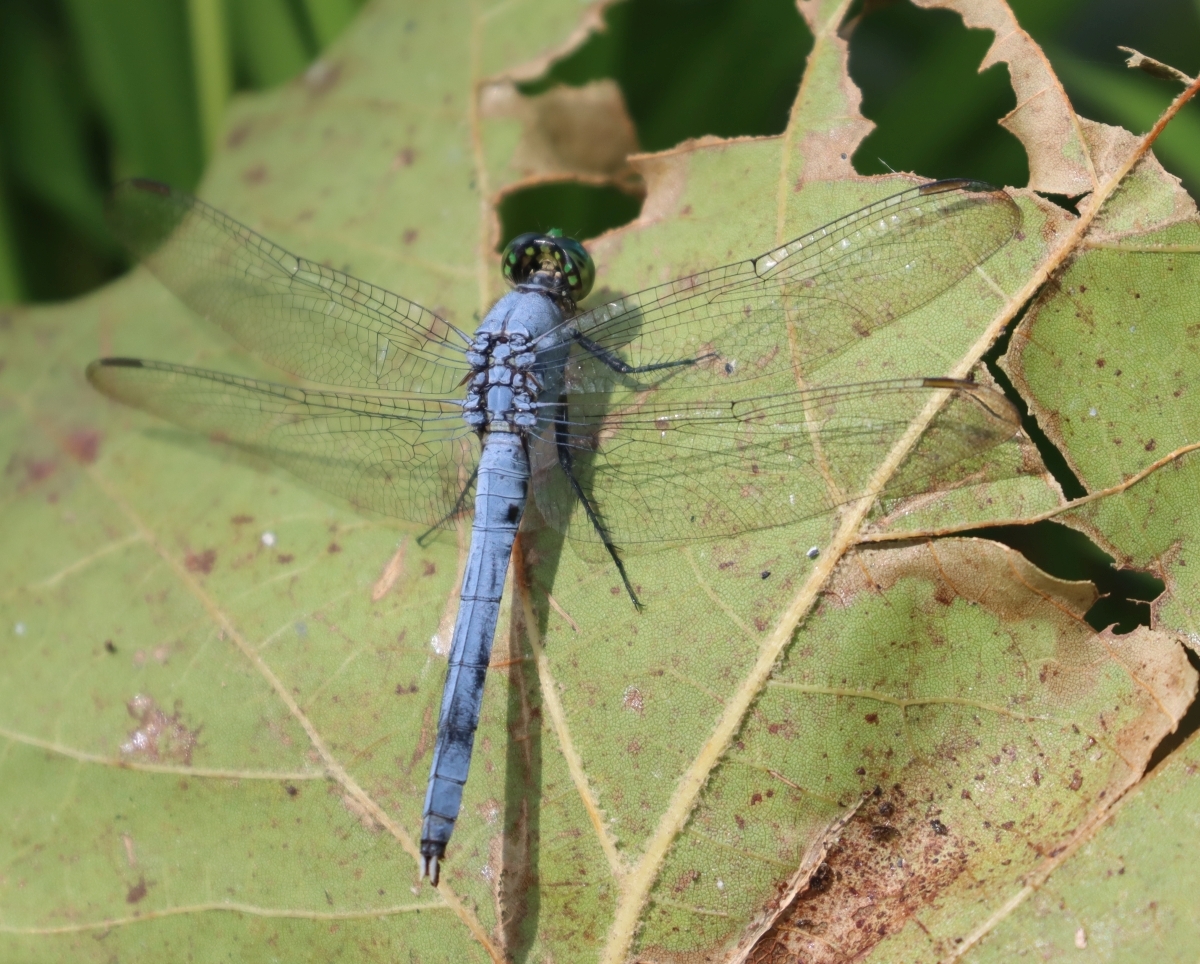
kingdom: Animalia
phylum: Arthropoda
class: Insecta
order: Odonata
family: Libellulidae
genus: Erythemis
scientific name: Erythemis simplicicollis
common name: Eastern pondhawk
